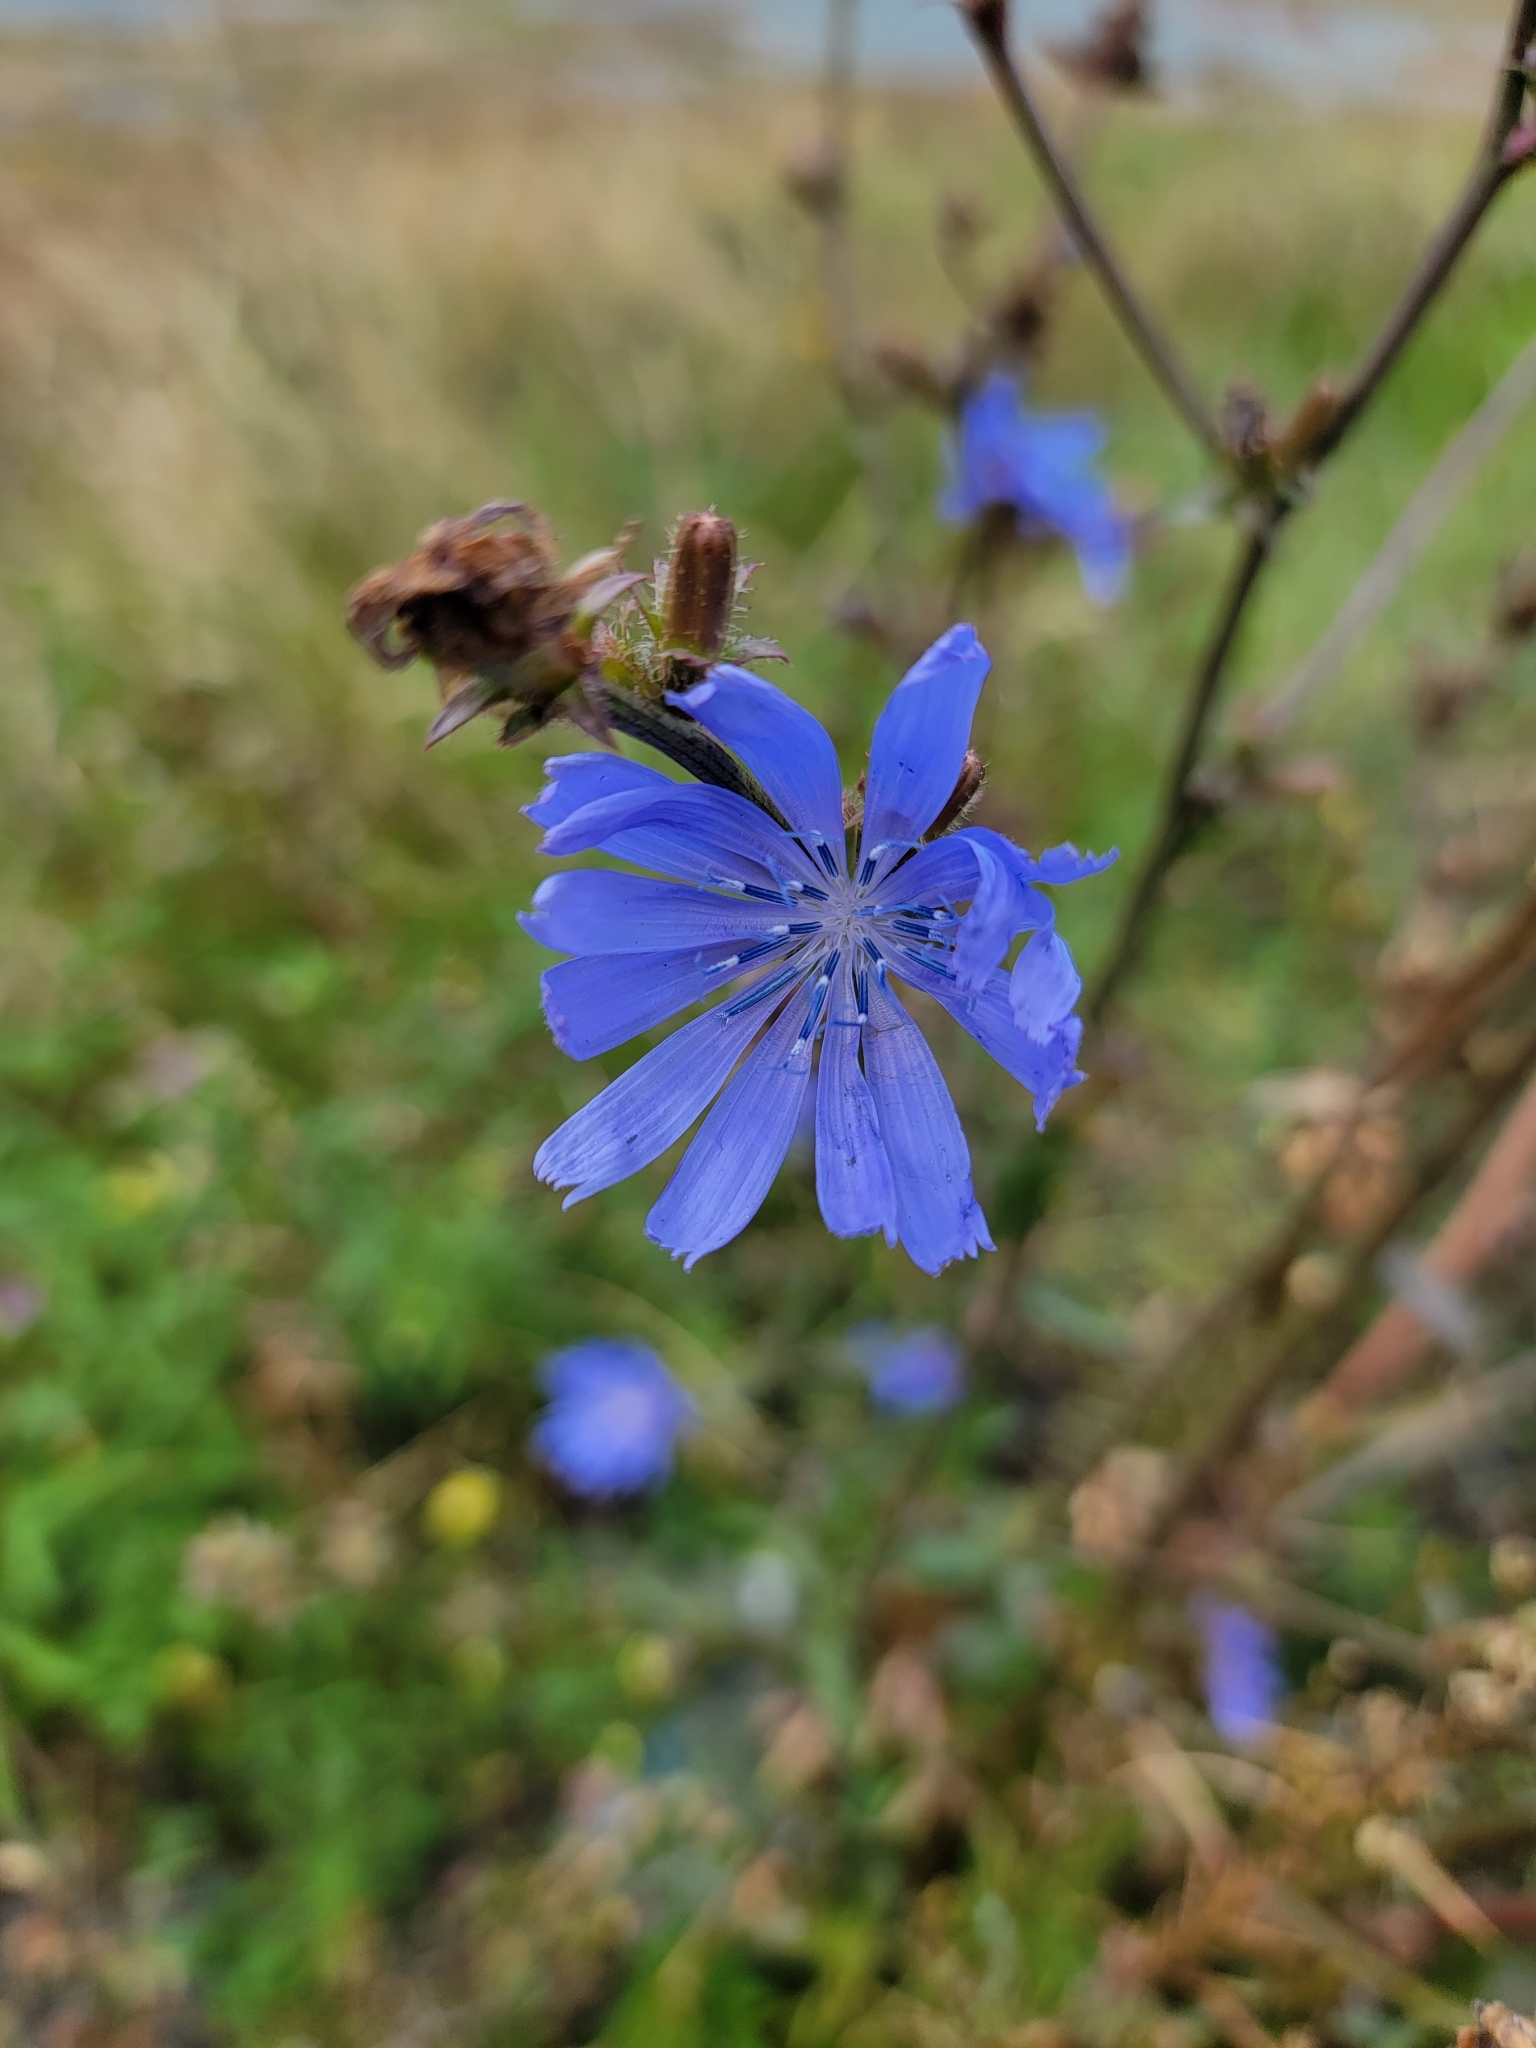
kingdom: Plantae
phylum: Tracheophyta
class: Magnoliopsida
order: Asterales
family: Asteraceae
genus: Cichorium
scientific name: Cichorium intybus
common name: Chicory
